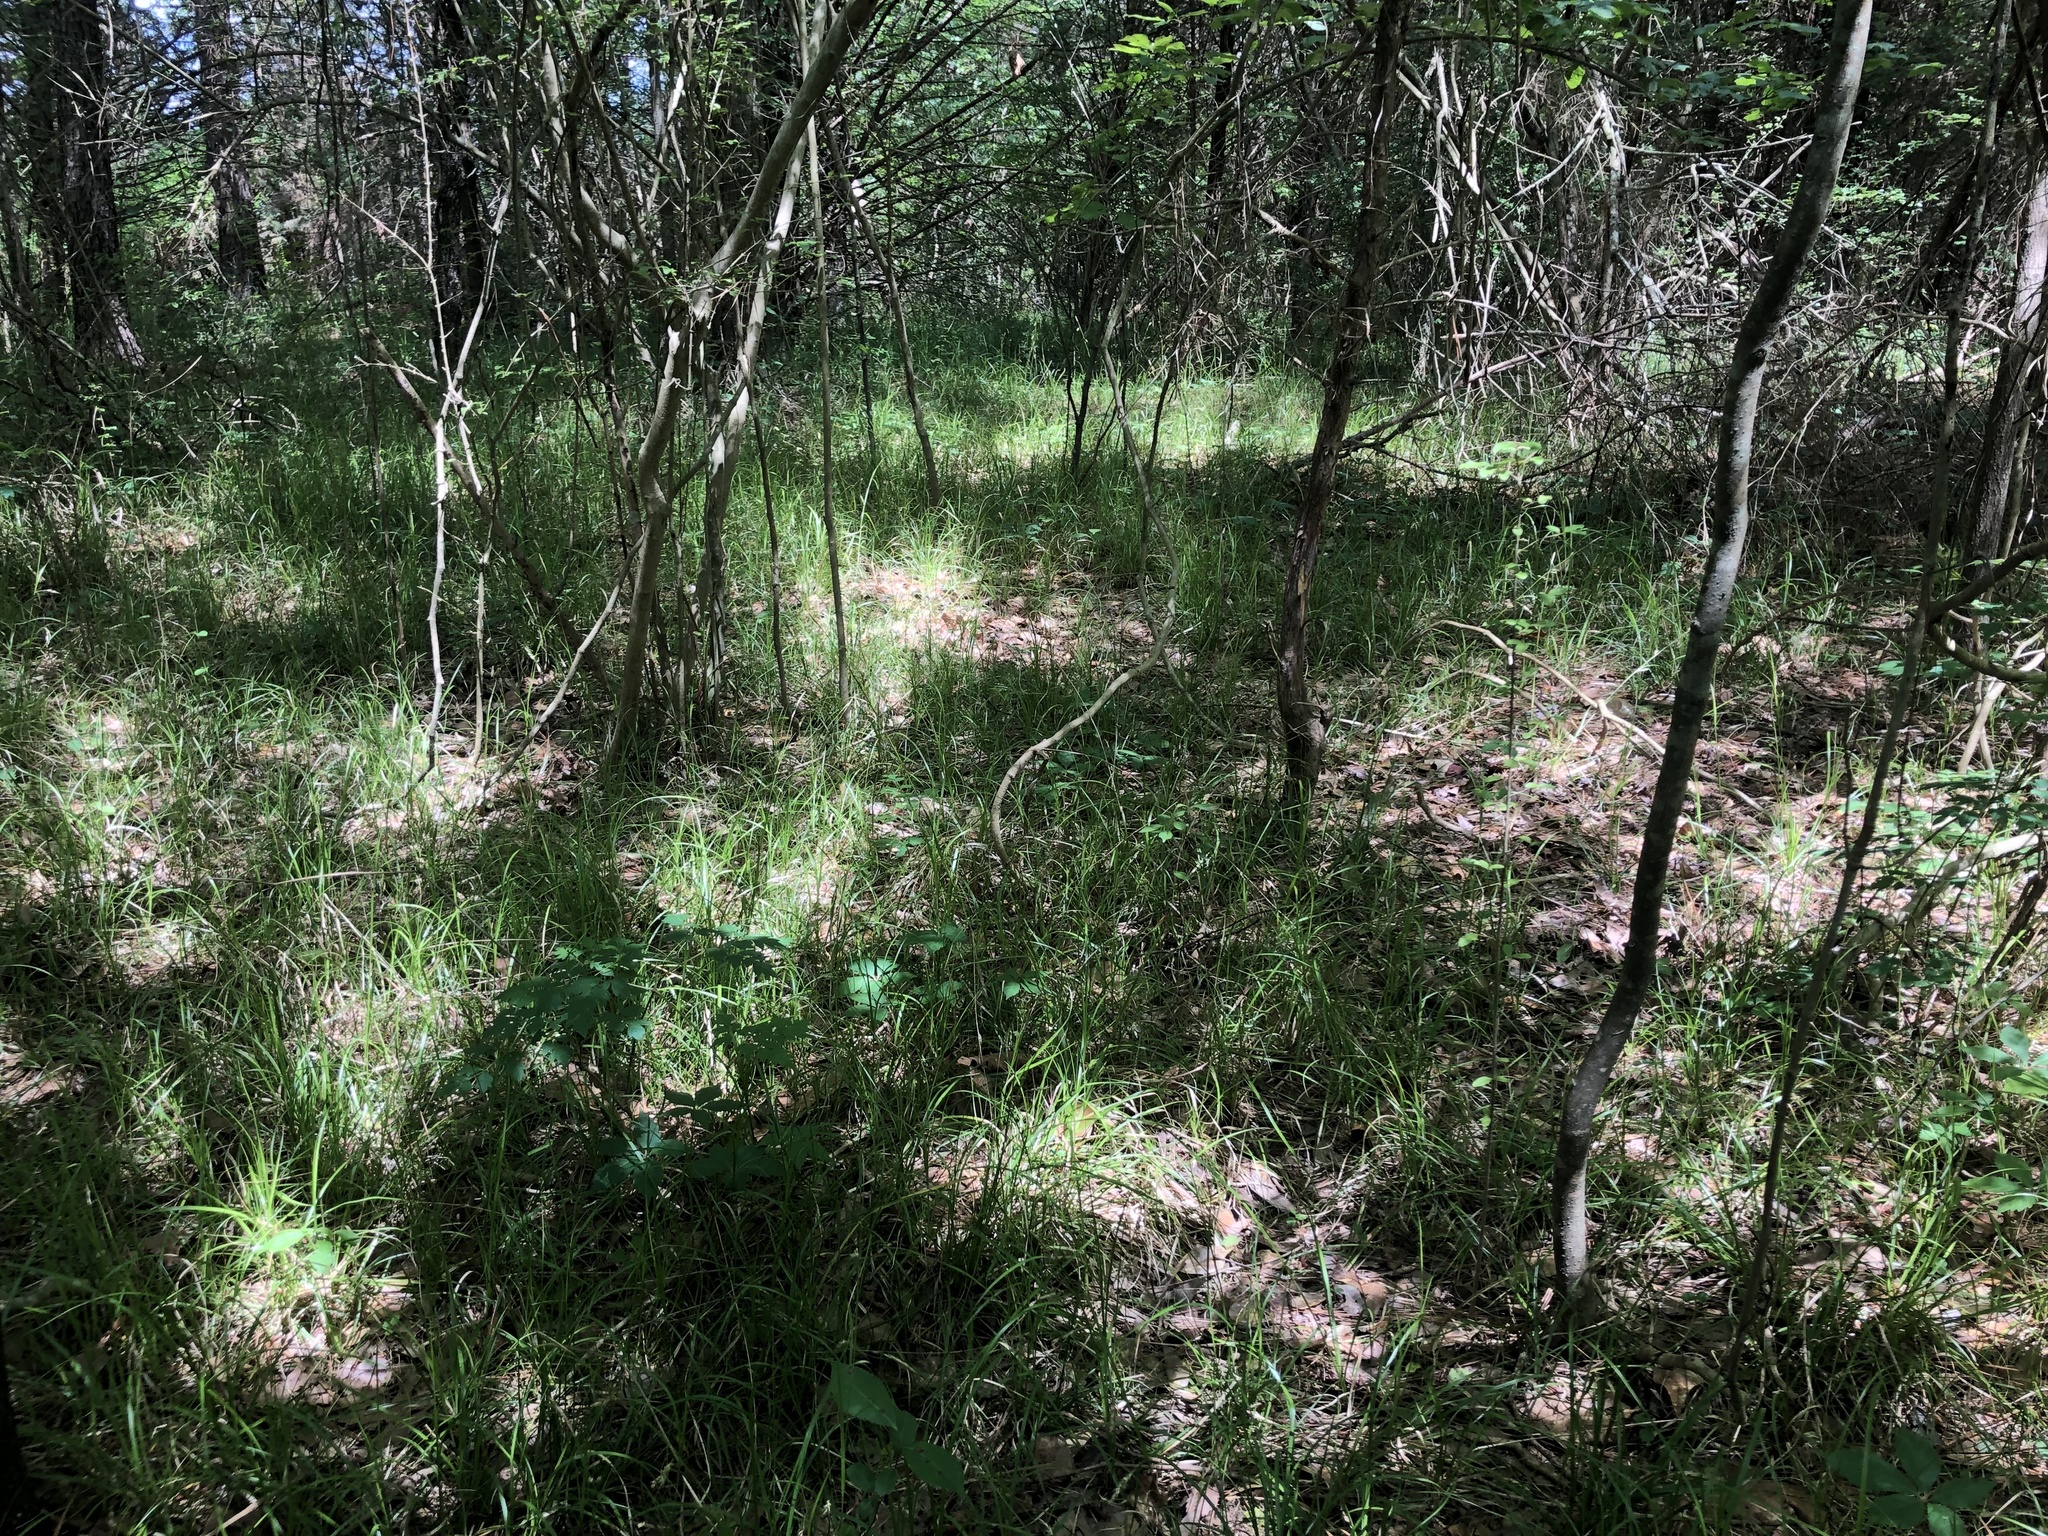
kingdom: Plantae
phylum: Tracheophyta
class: Magnoliopsida
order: Sapindales
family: Rutaceae
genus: Citrus
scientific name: Citrus trifoliata
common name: Japanese bitter-orange
